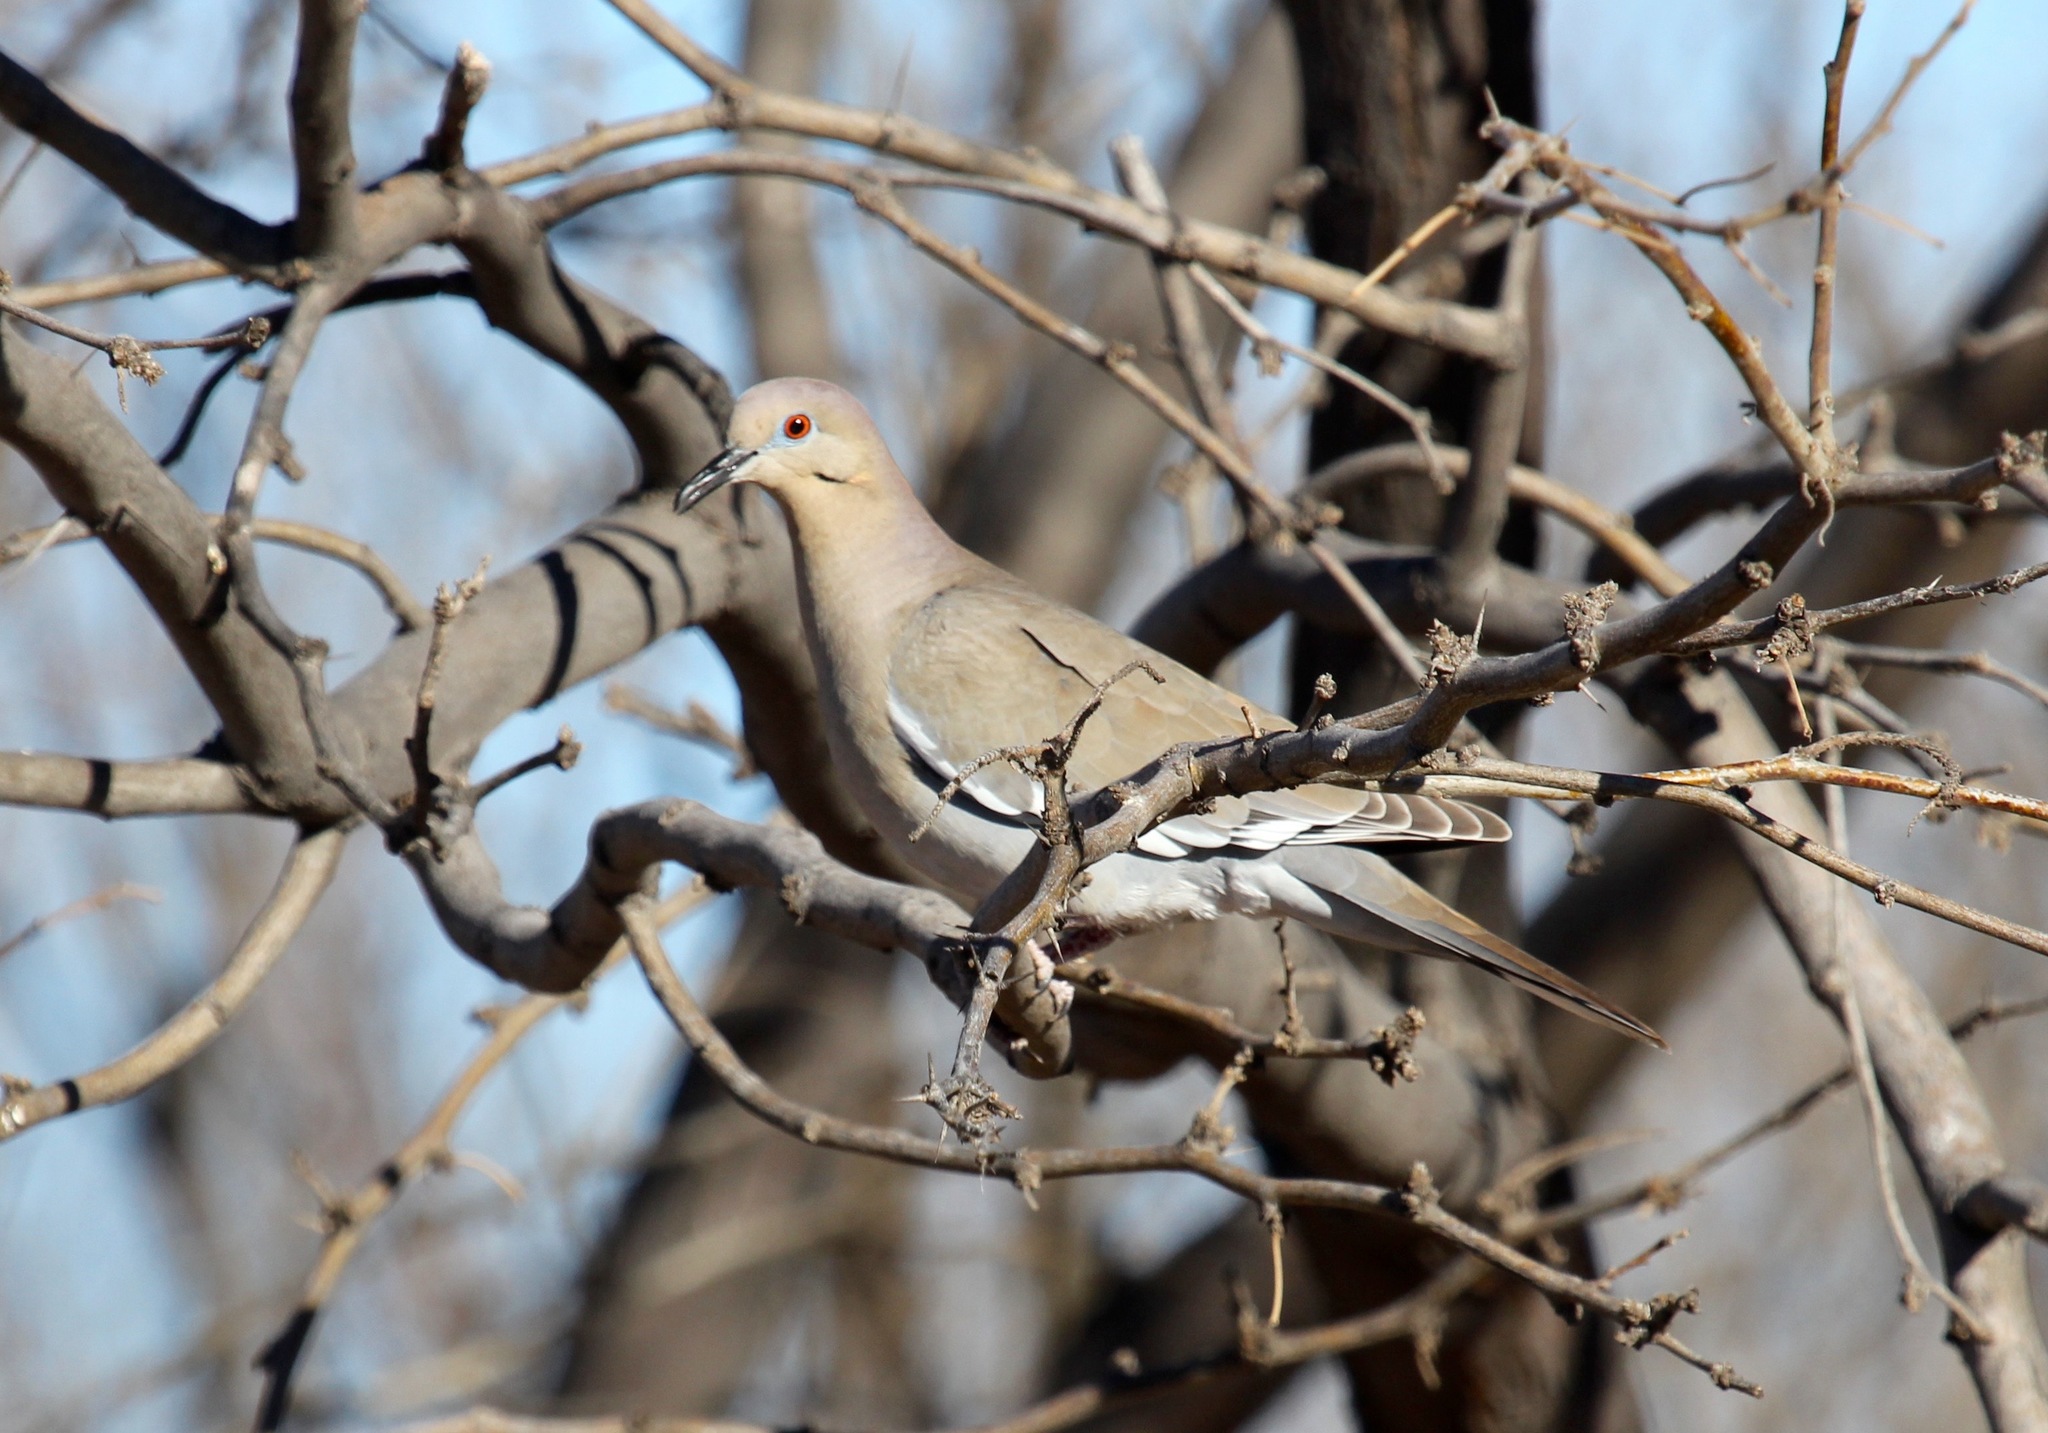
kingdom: Animalia
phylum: Chordata
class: Aves
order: Columbiformes
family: Columbidae
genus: Zenaida
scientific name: Zenaida asiatica
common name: White-winged dove
